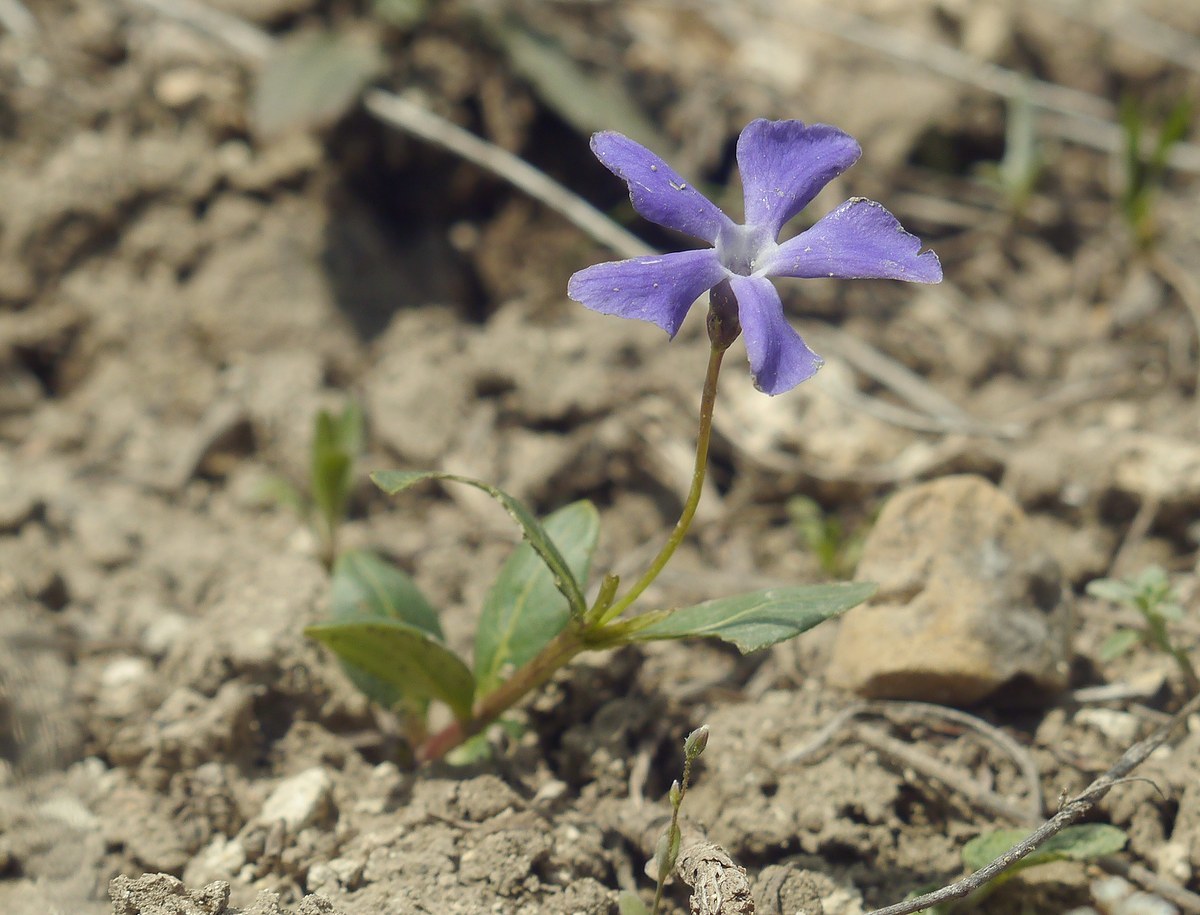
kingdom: Plantae
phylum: Tracheophyta
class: Magnoliopsida
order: Gentianales
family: Apocynaceae
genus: Vinca
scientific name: Vinca herbacea
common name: Herbaceous periwinkle
